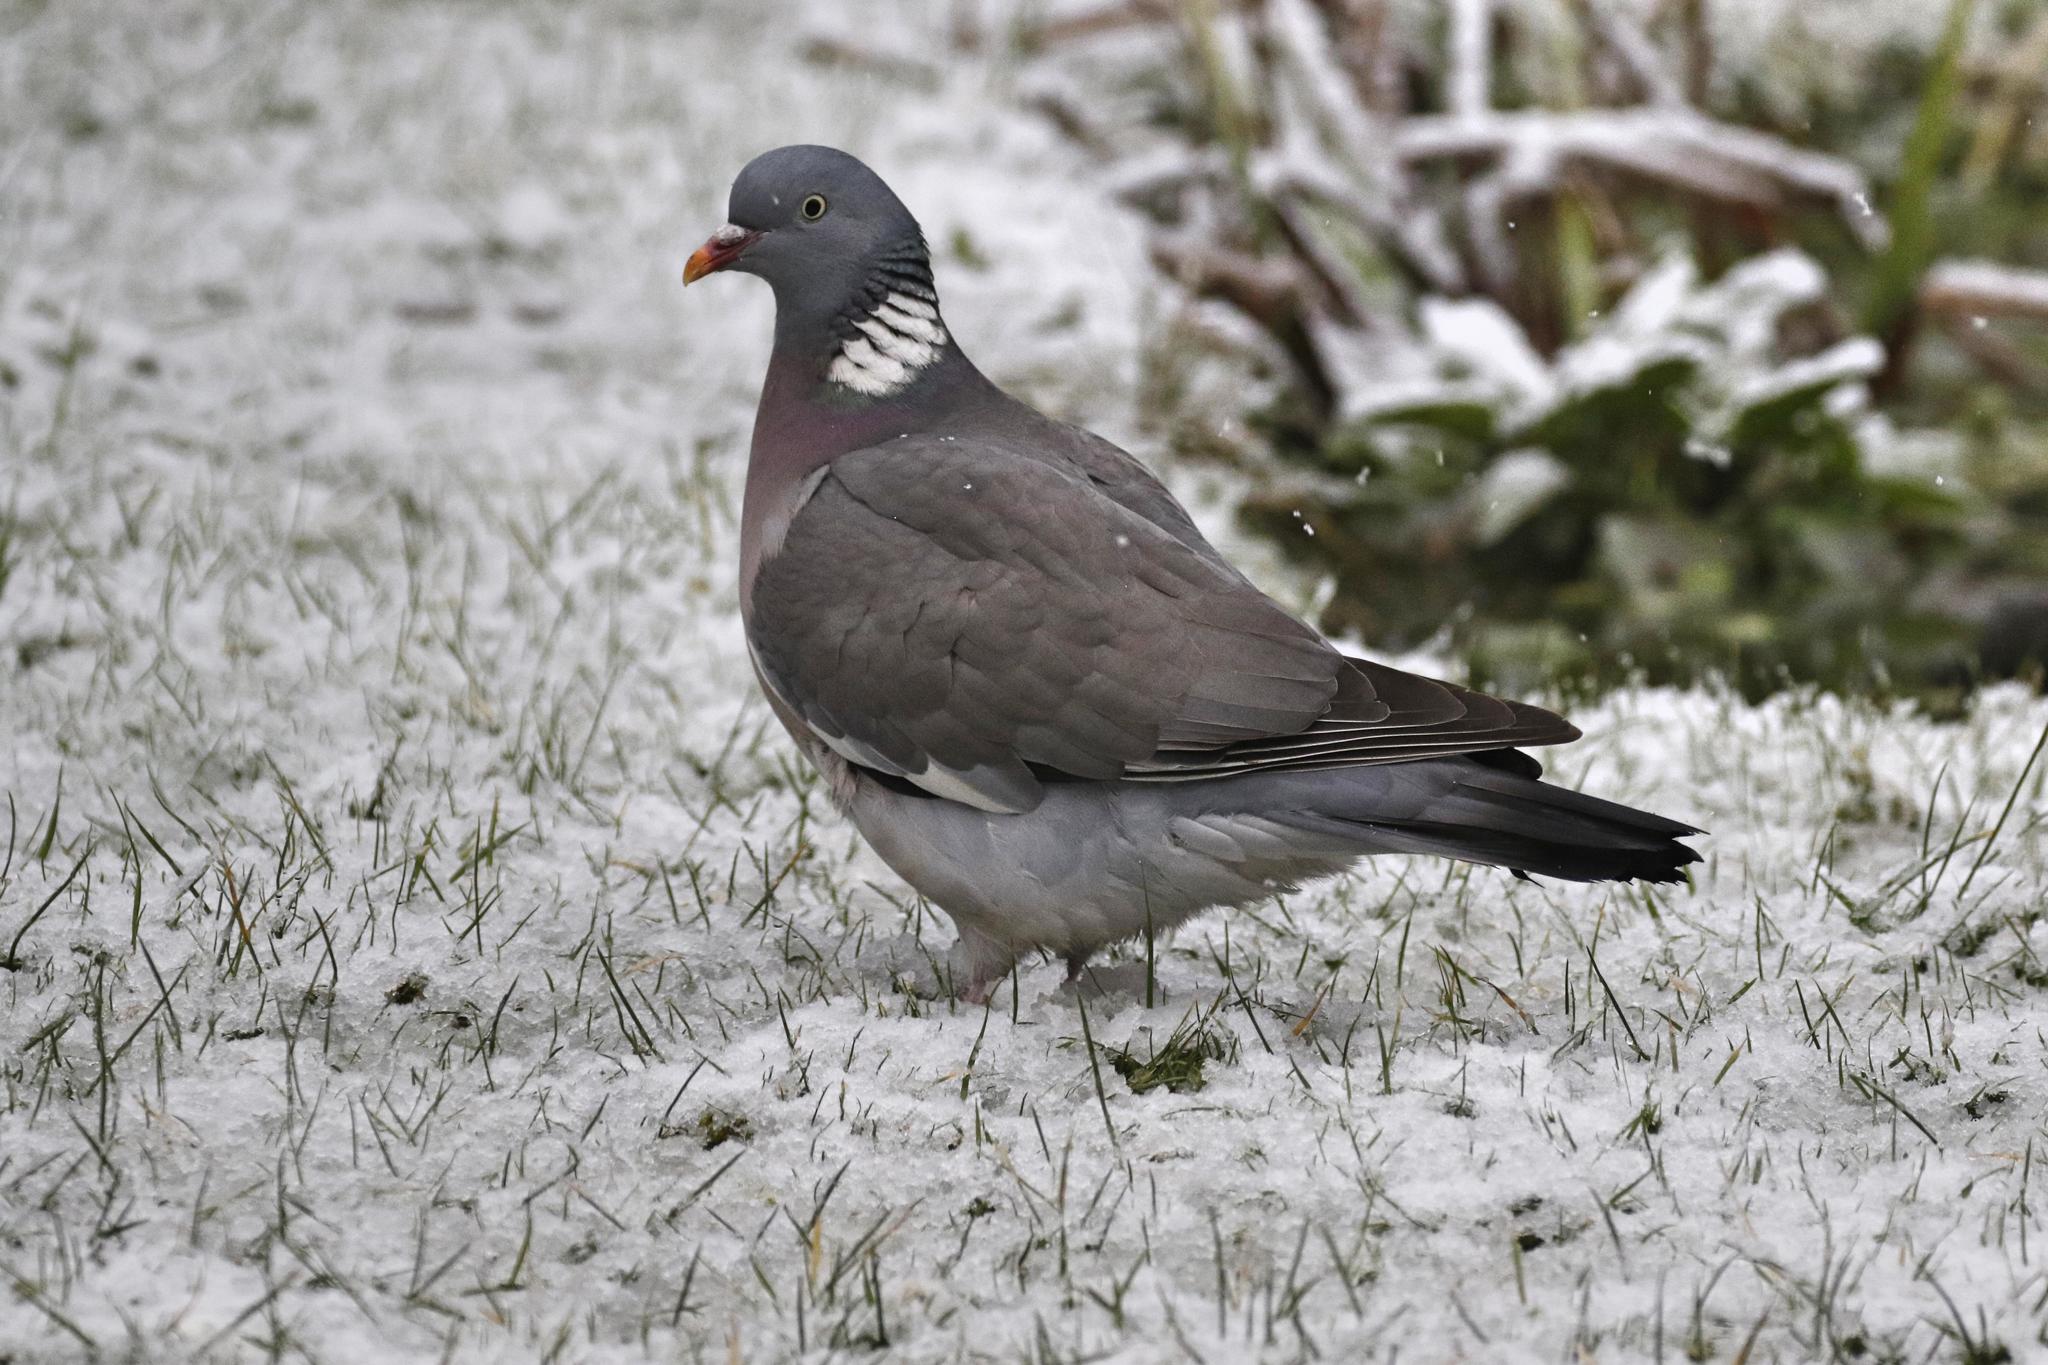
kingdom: Animalia
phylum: Chordata
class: Aves
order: Columbiformes
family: Columbidae
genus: Columba
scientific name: Columba palumbus
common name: Common wood pigeon
